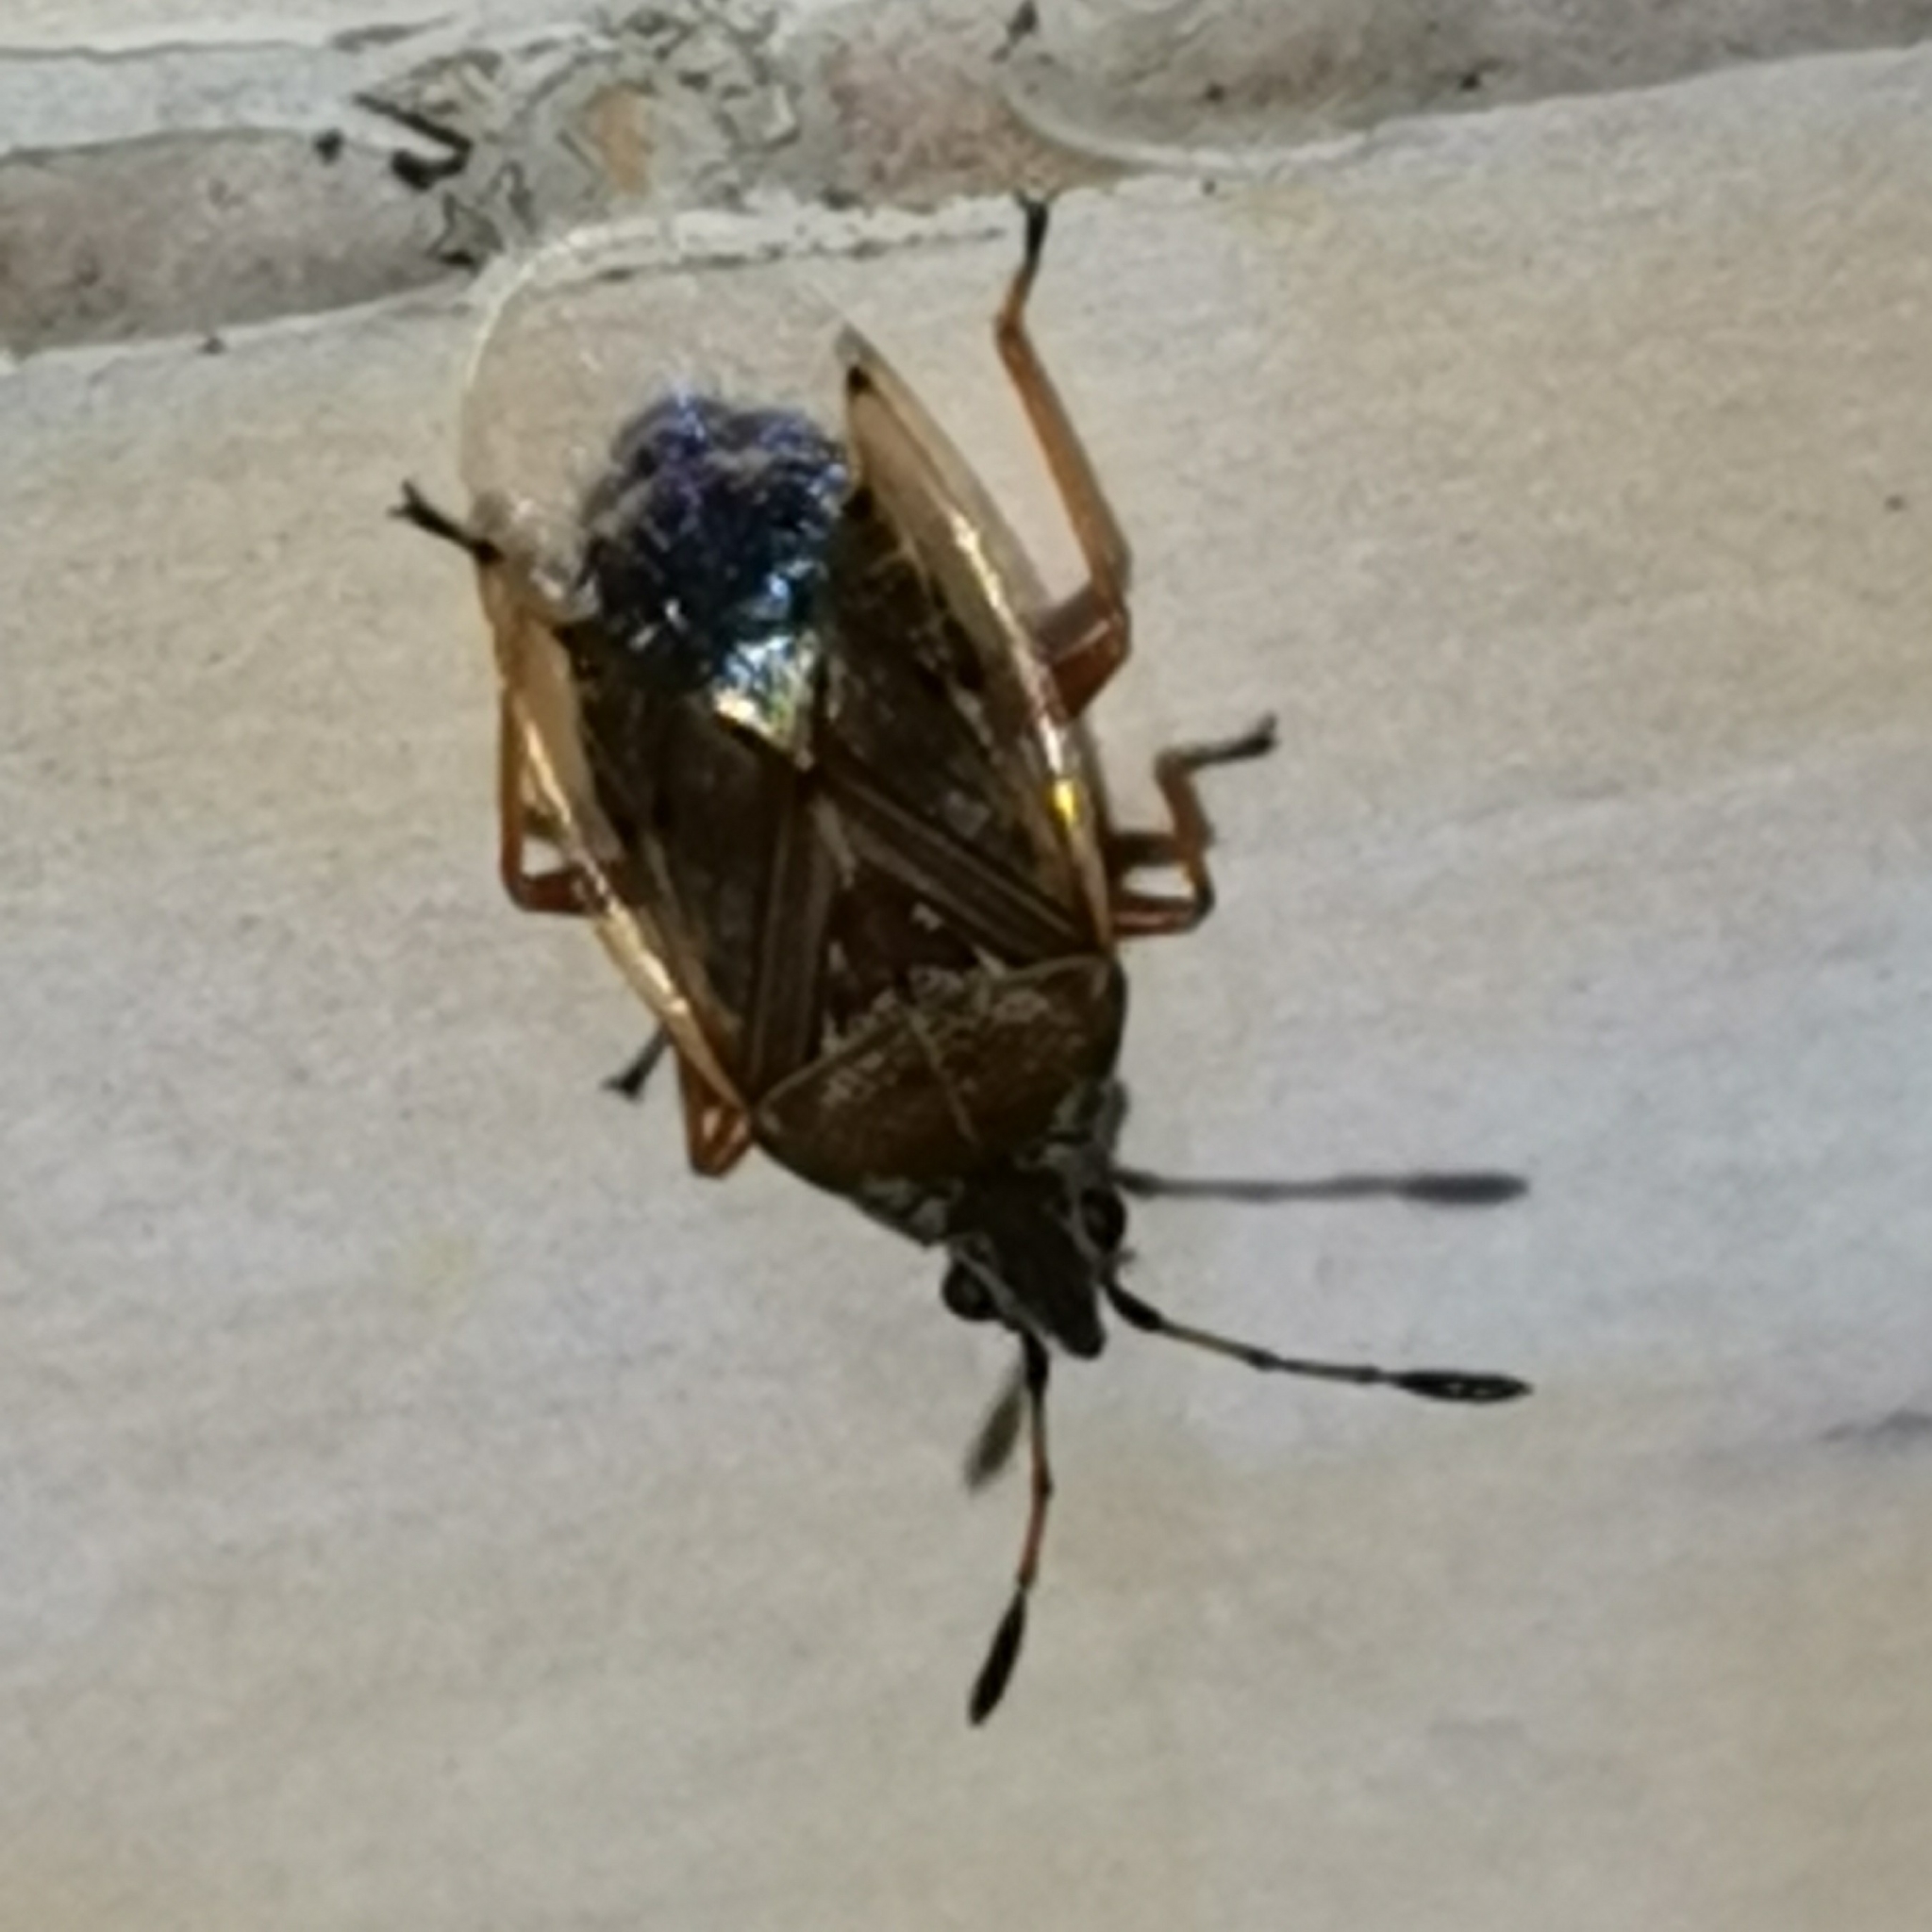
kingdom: Animalia
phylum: Arthropoda
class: Insecta
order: Hemiptera
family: Lygaeidae
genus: Kleidocerys
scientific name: Kleidocerys resedae
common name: Birch catkin bug
